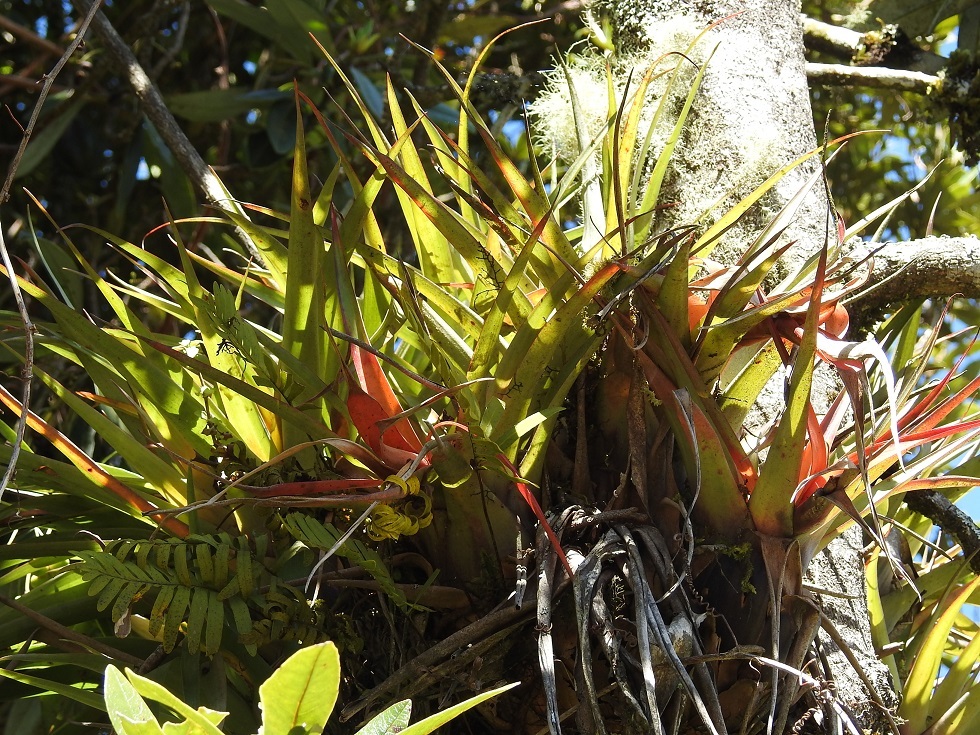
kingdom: Plantae
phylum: Tracheophyta
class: Liliopsida
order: Poales
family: Bromeliaceae
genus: Tillandsia
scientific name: Tillandsia lautneri
